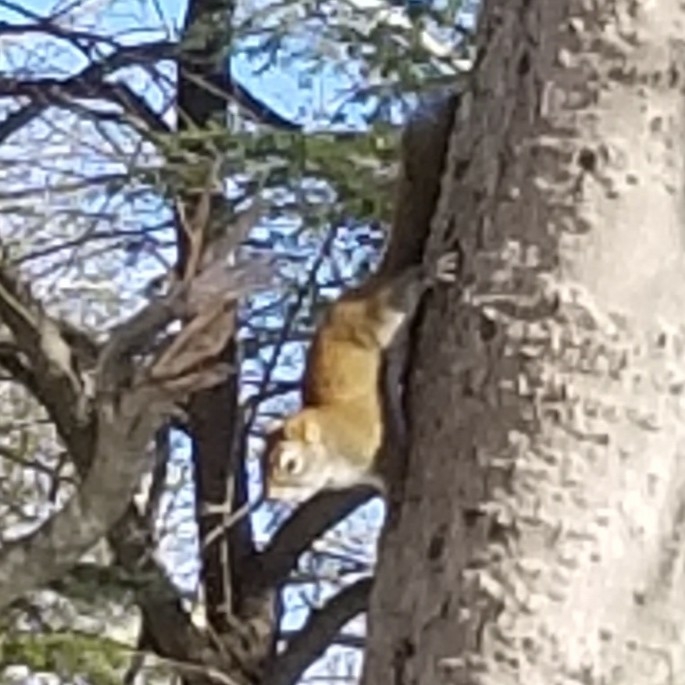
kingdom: Animalia
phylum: Chordata
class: Mammalia
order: Rodentia
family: Sciuridae
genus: Tamiasciurus
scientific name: Tamiasciurus hudsonicus
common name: Red squirrel
